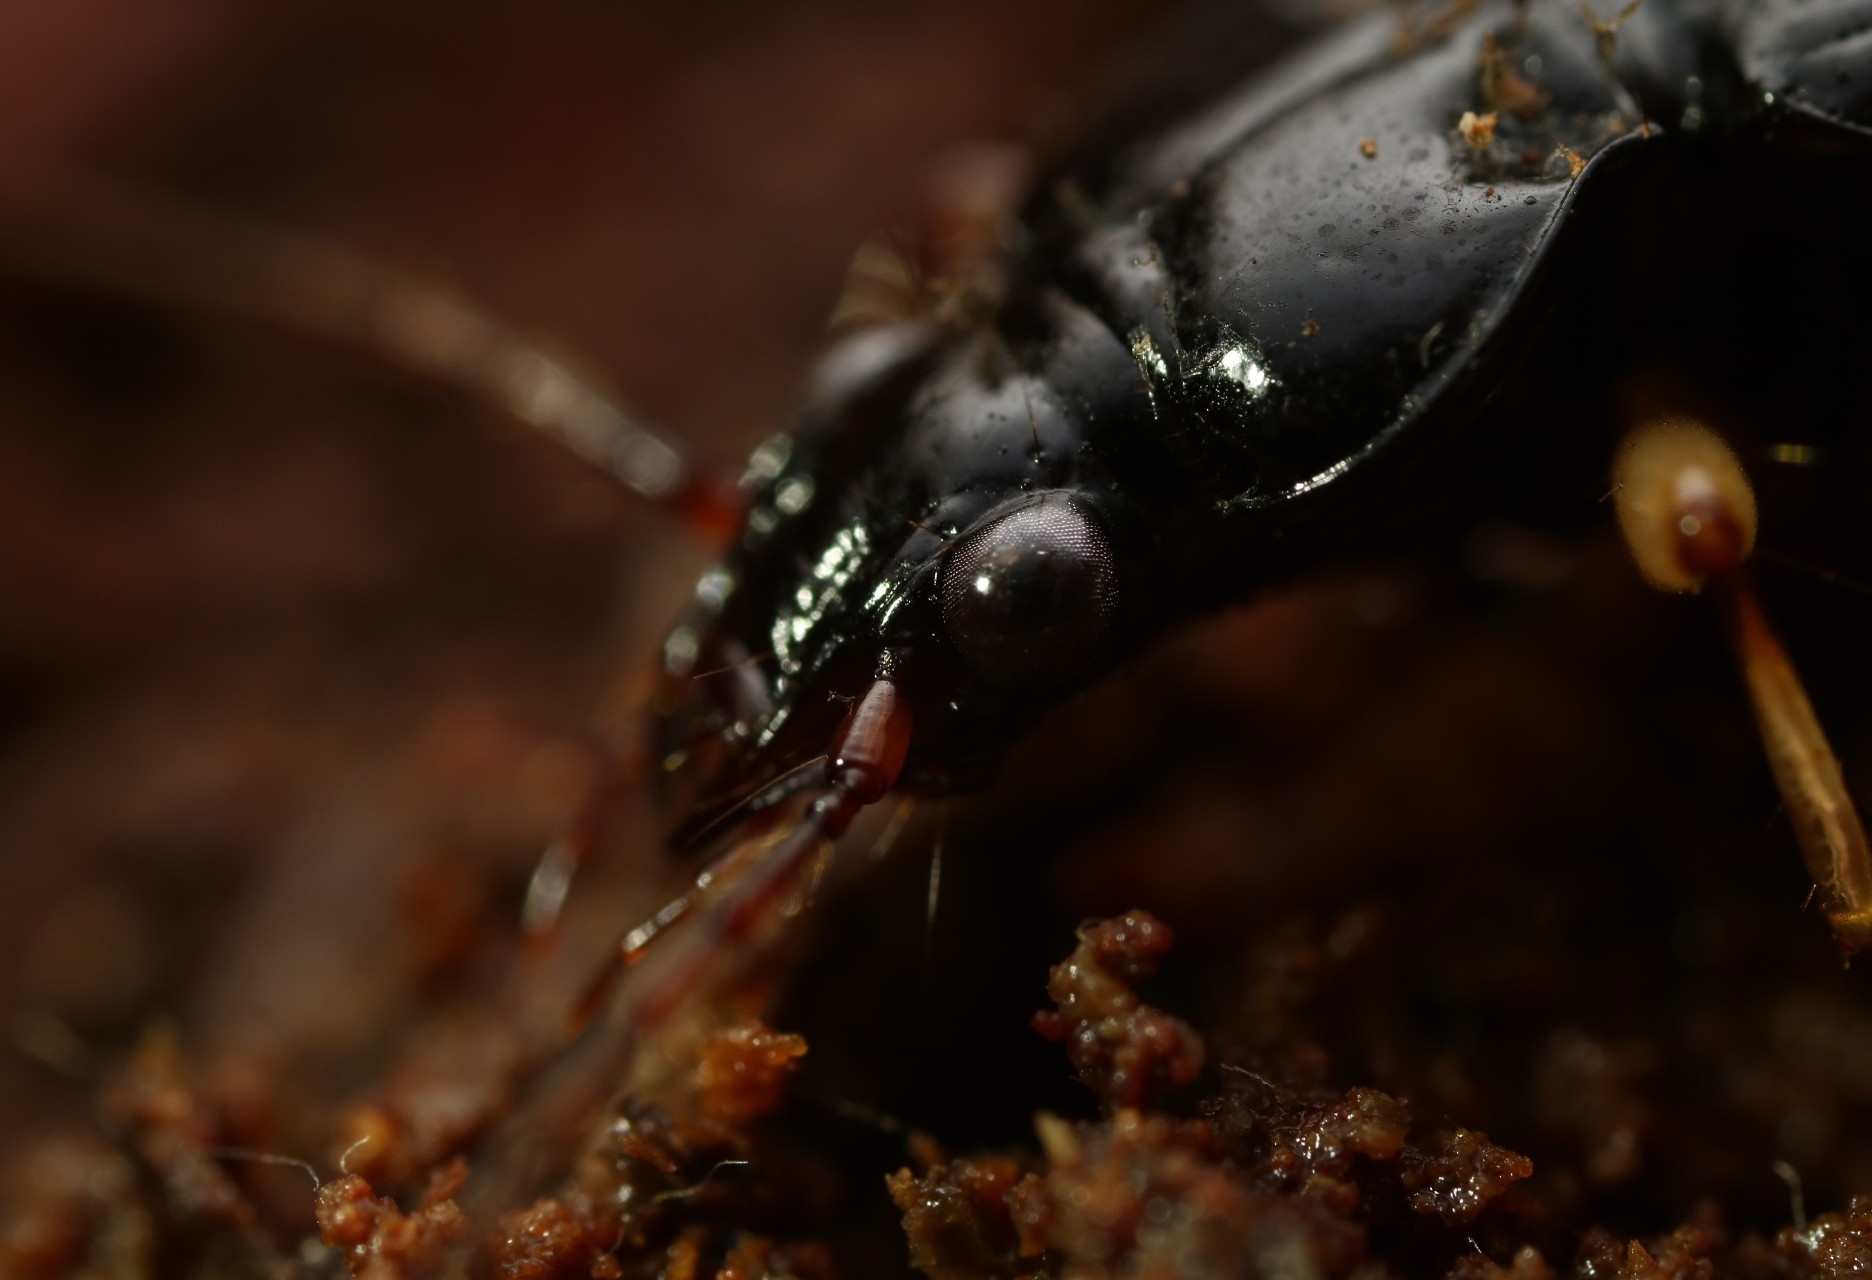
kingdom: Animalia
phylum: Arthropoda
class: Insecta
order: Coleoptera
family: Carabidae
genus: Patrobus
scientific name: Patrobus longicornis
